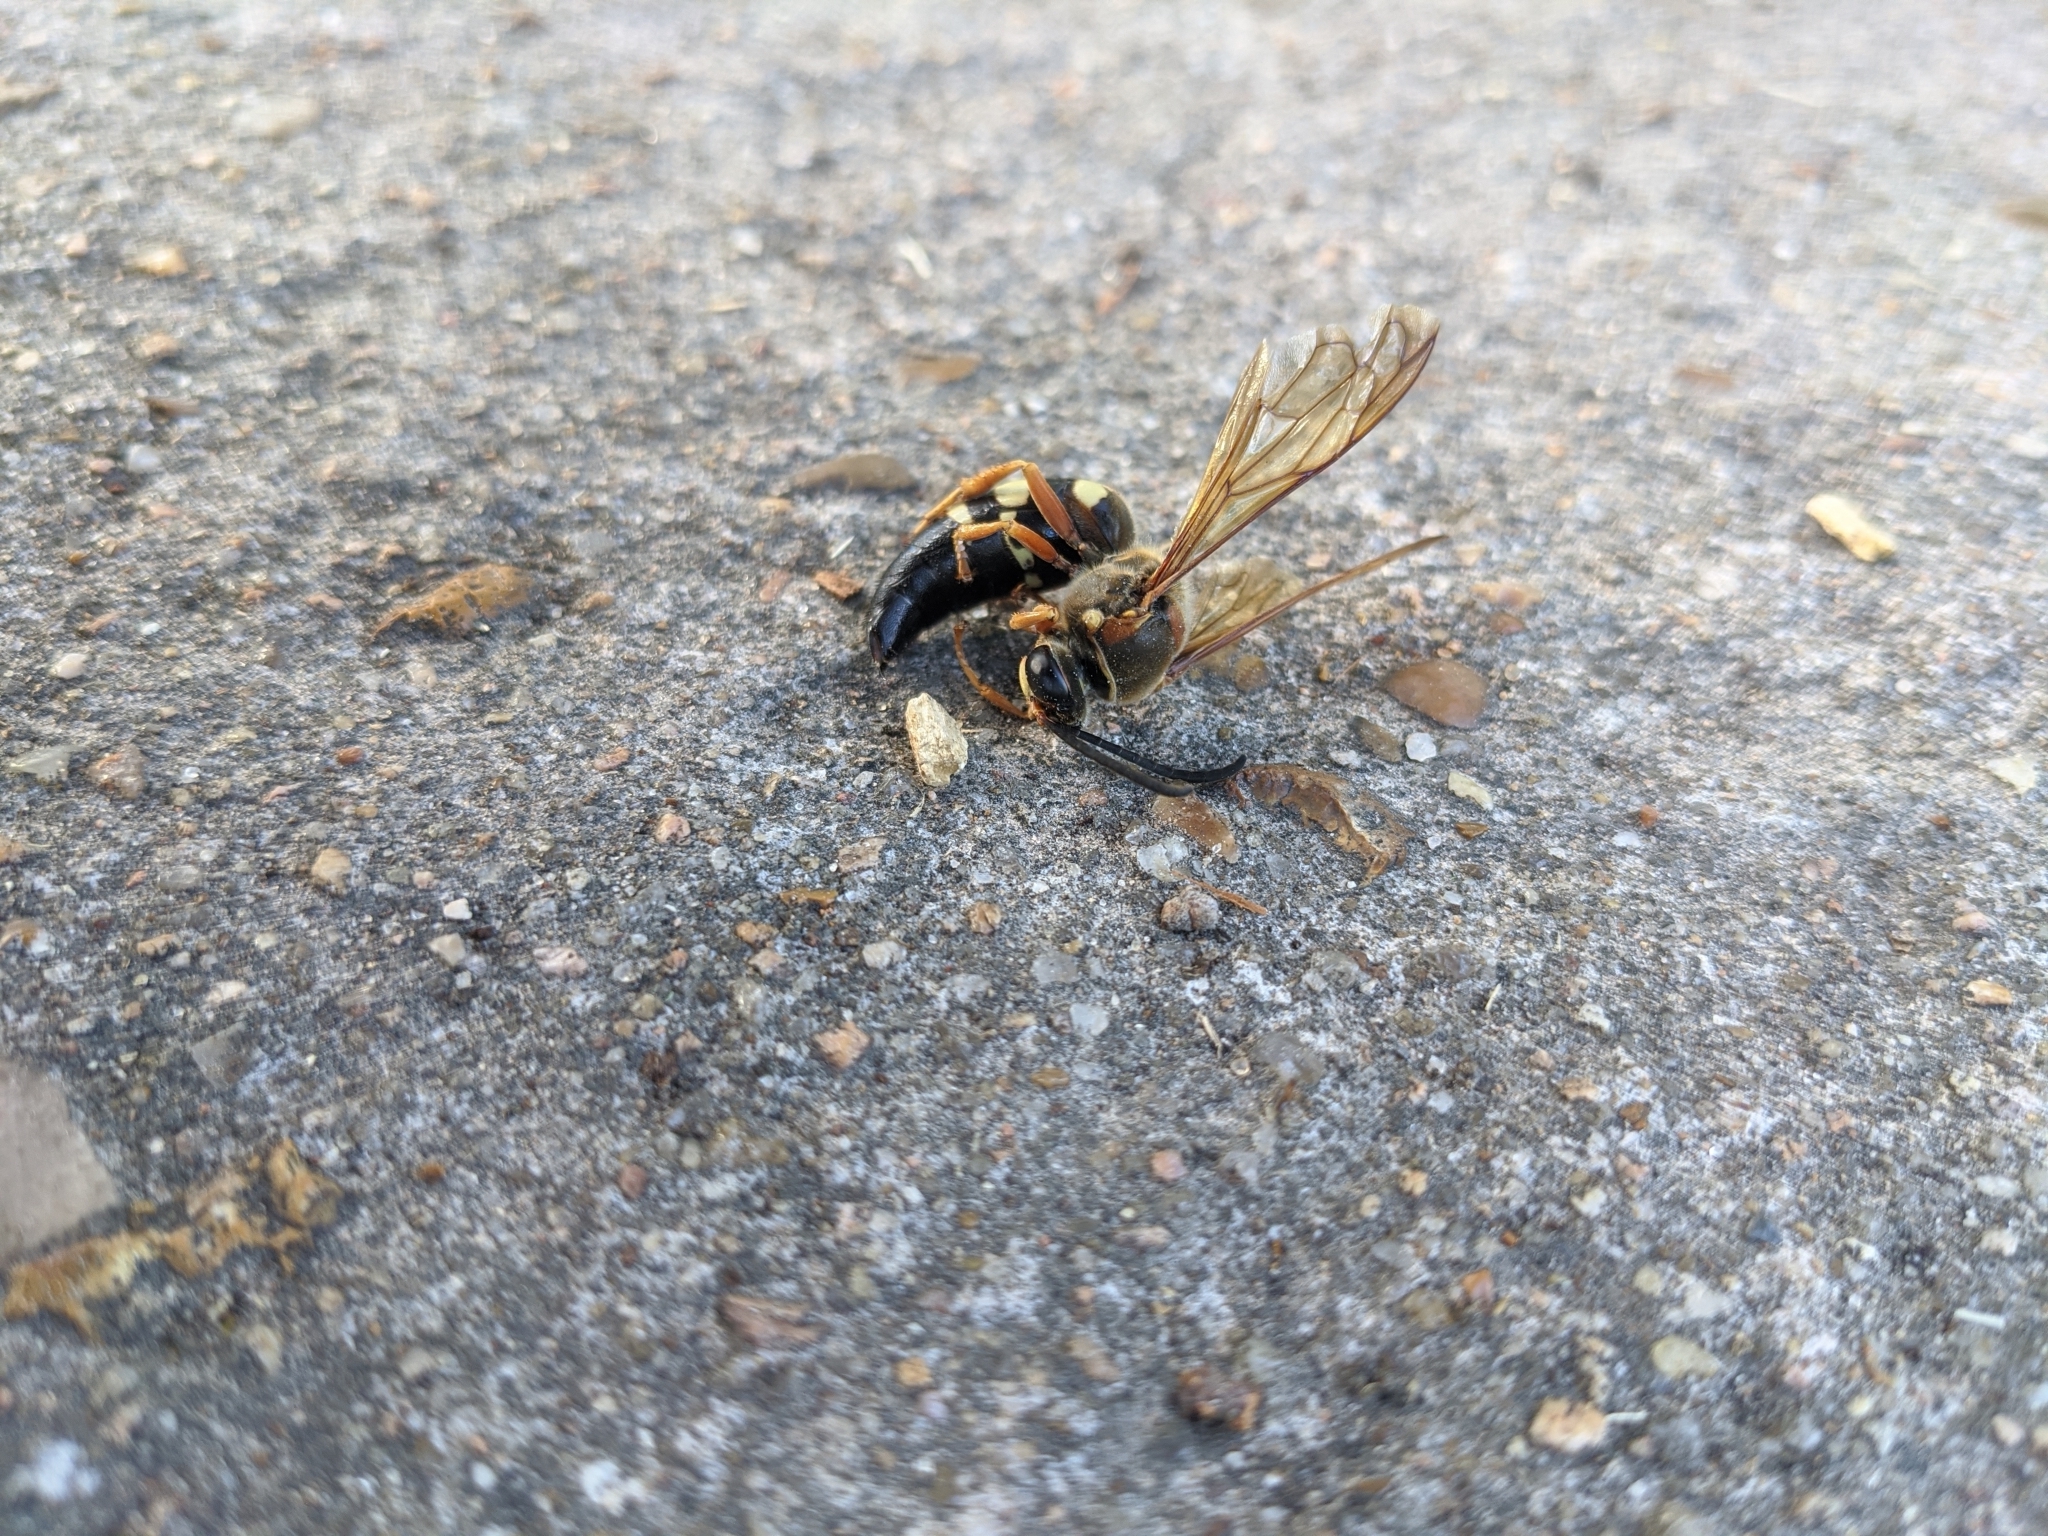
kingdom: Animalia
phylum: Arthropoda
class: Insecta
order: Hymenoptera
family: Crabronidae
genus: Sphecius
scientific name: Sphecius speciosus
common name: Cicada killer
